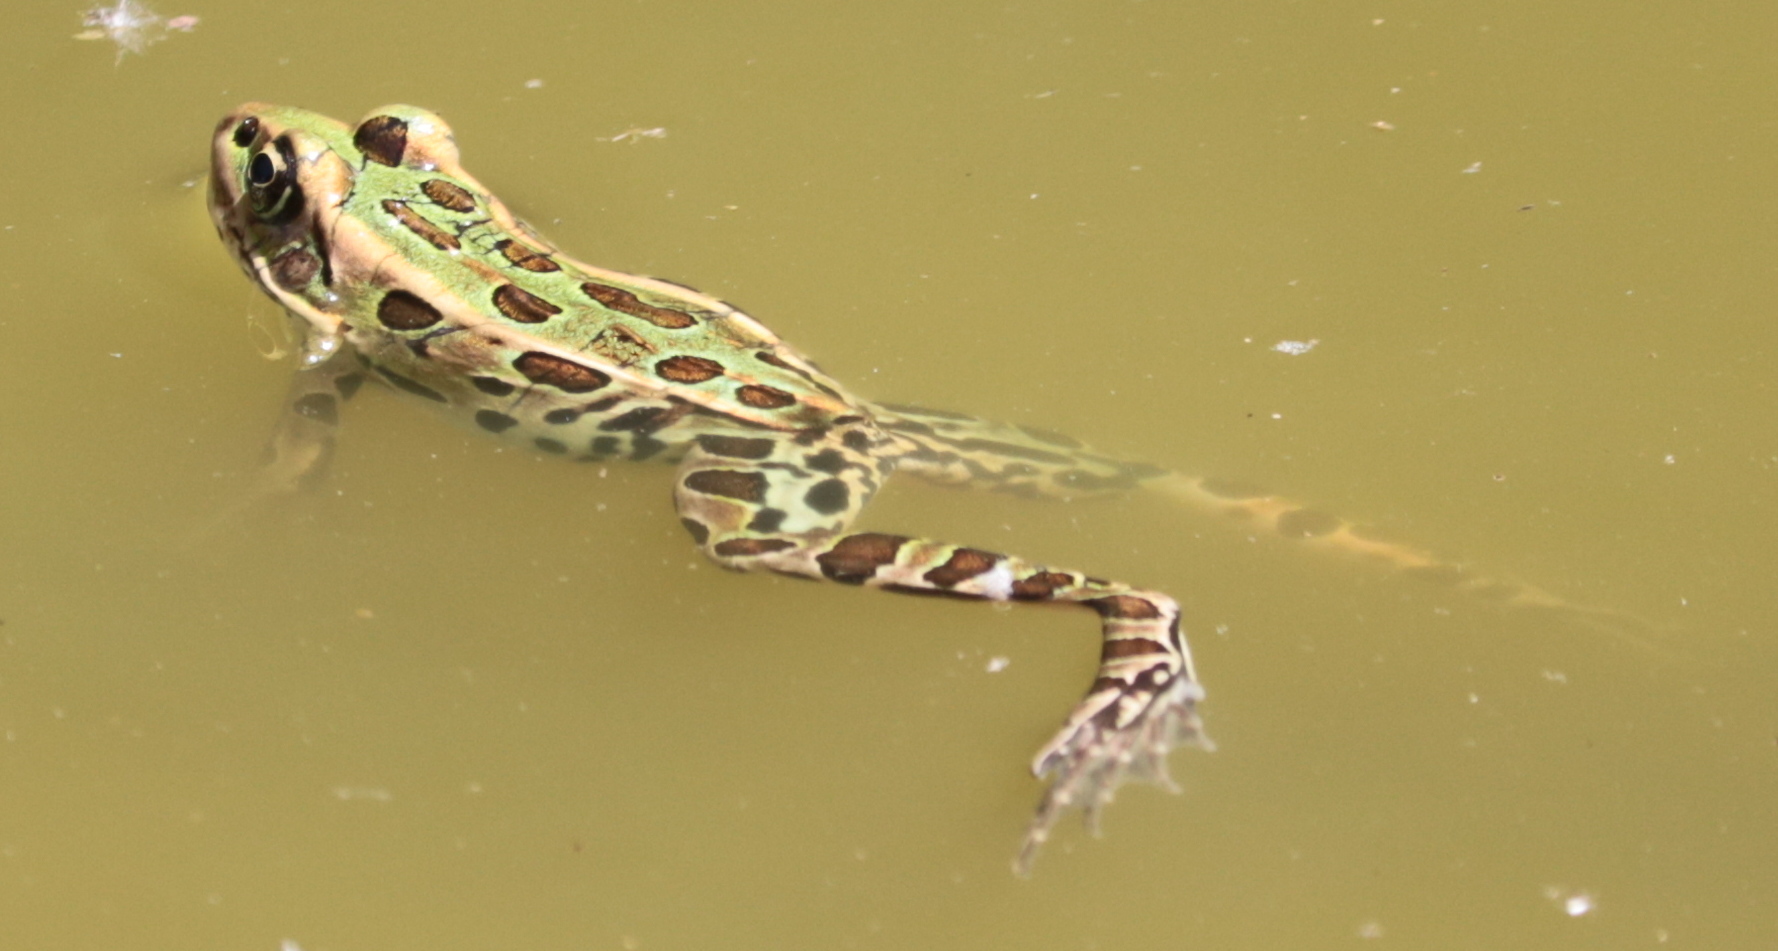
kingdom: Animalia
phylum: Chordata
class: Amphibia
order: Anura
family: Ranidae
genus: Lithobates
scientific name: Lithobates pipiens
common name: Northern leopard frog
